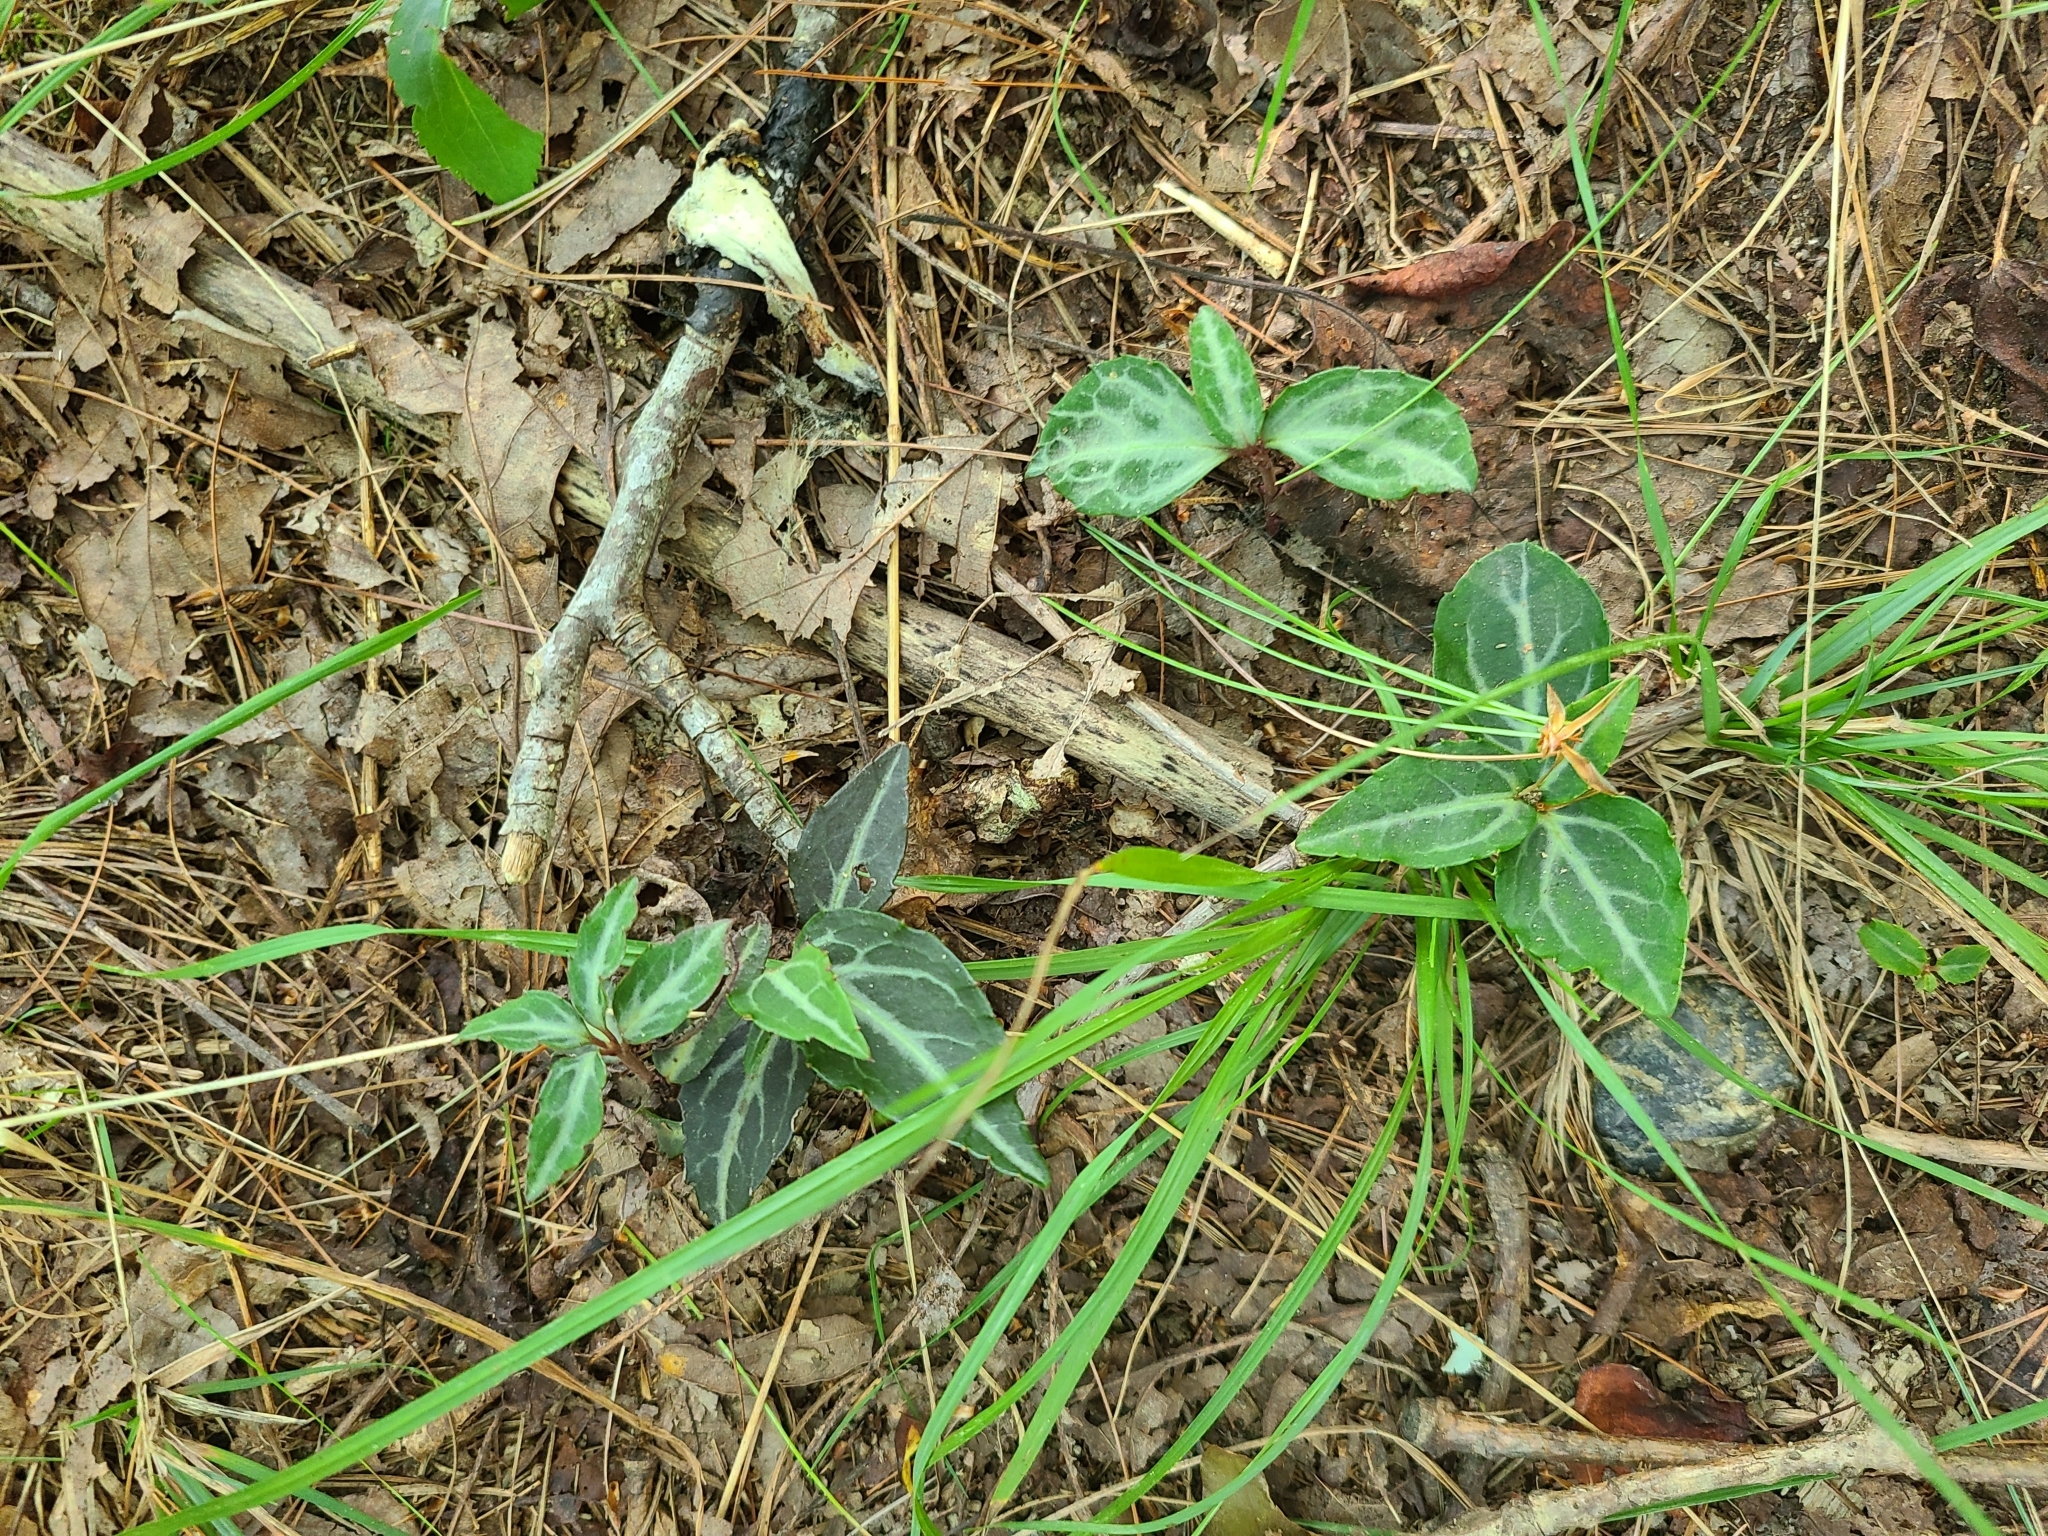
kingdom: Plantae
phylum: Tracheophyta
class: Magnoliopsida
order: Ericales
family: Ericaceae
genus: Chimaphila
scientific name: Chimaphila maculata
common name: Spotted pipsissewa
